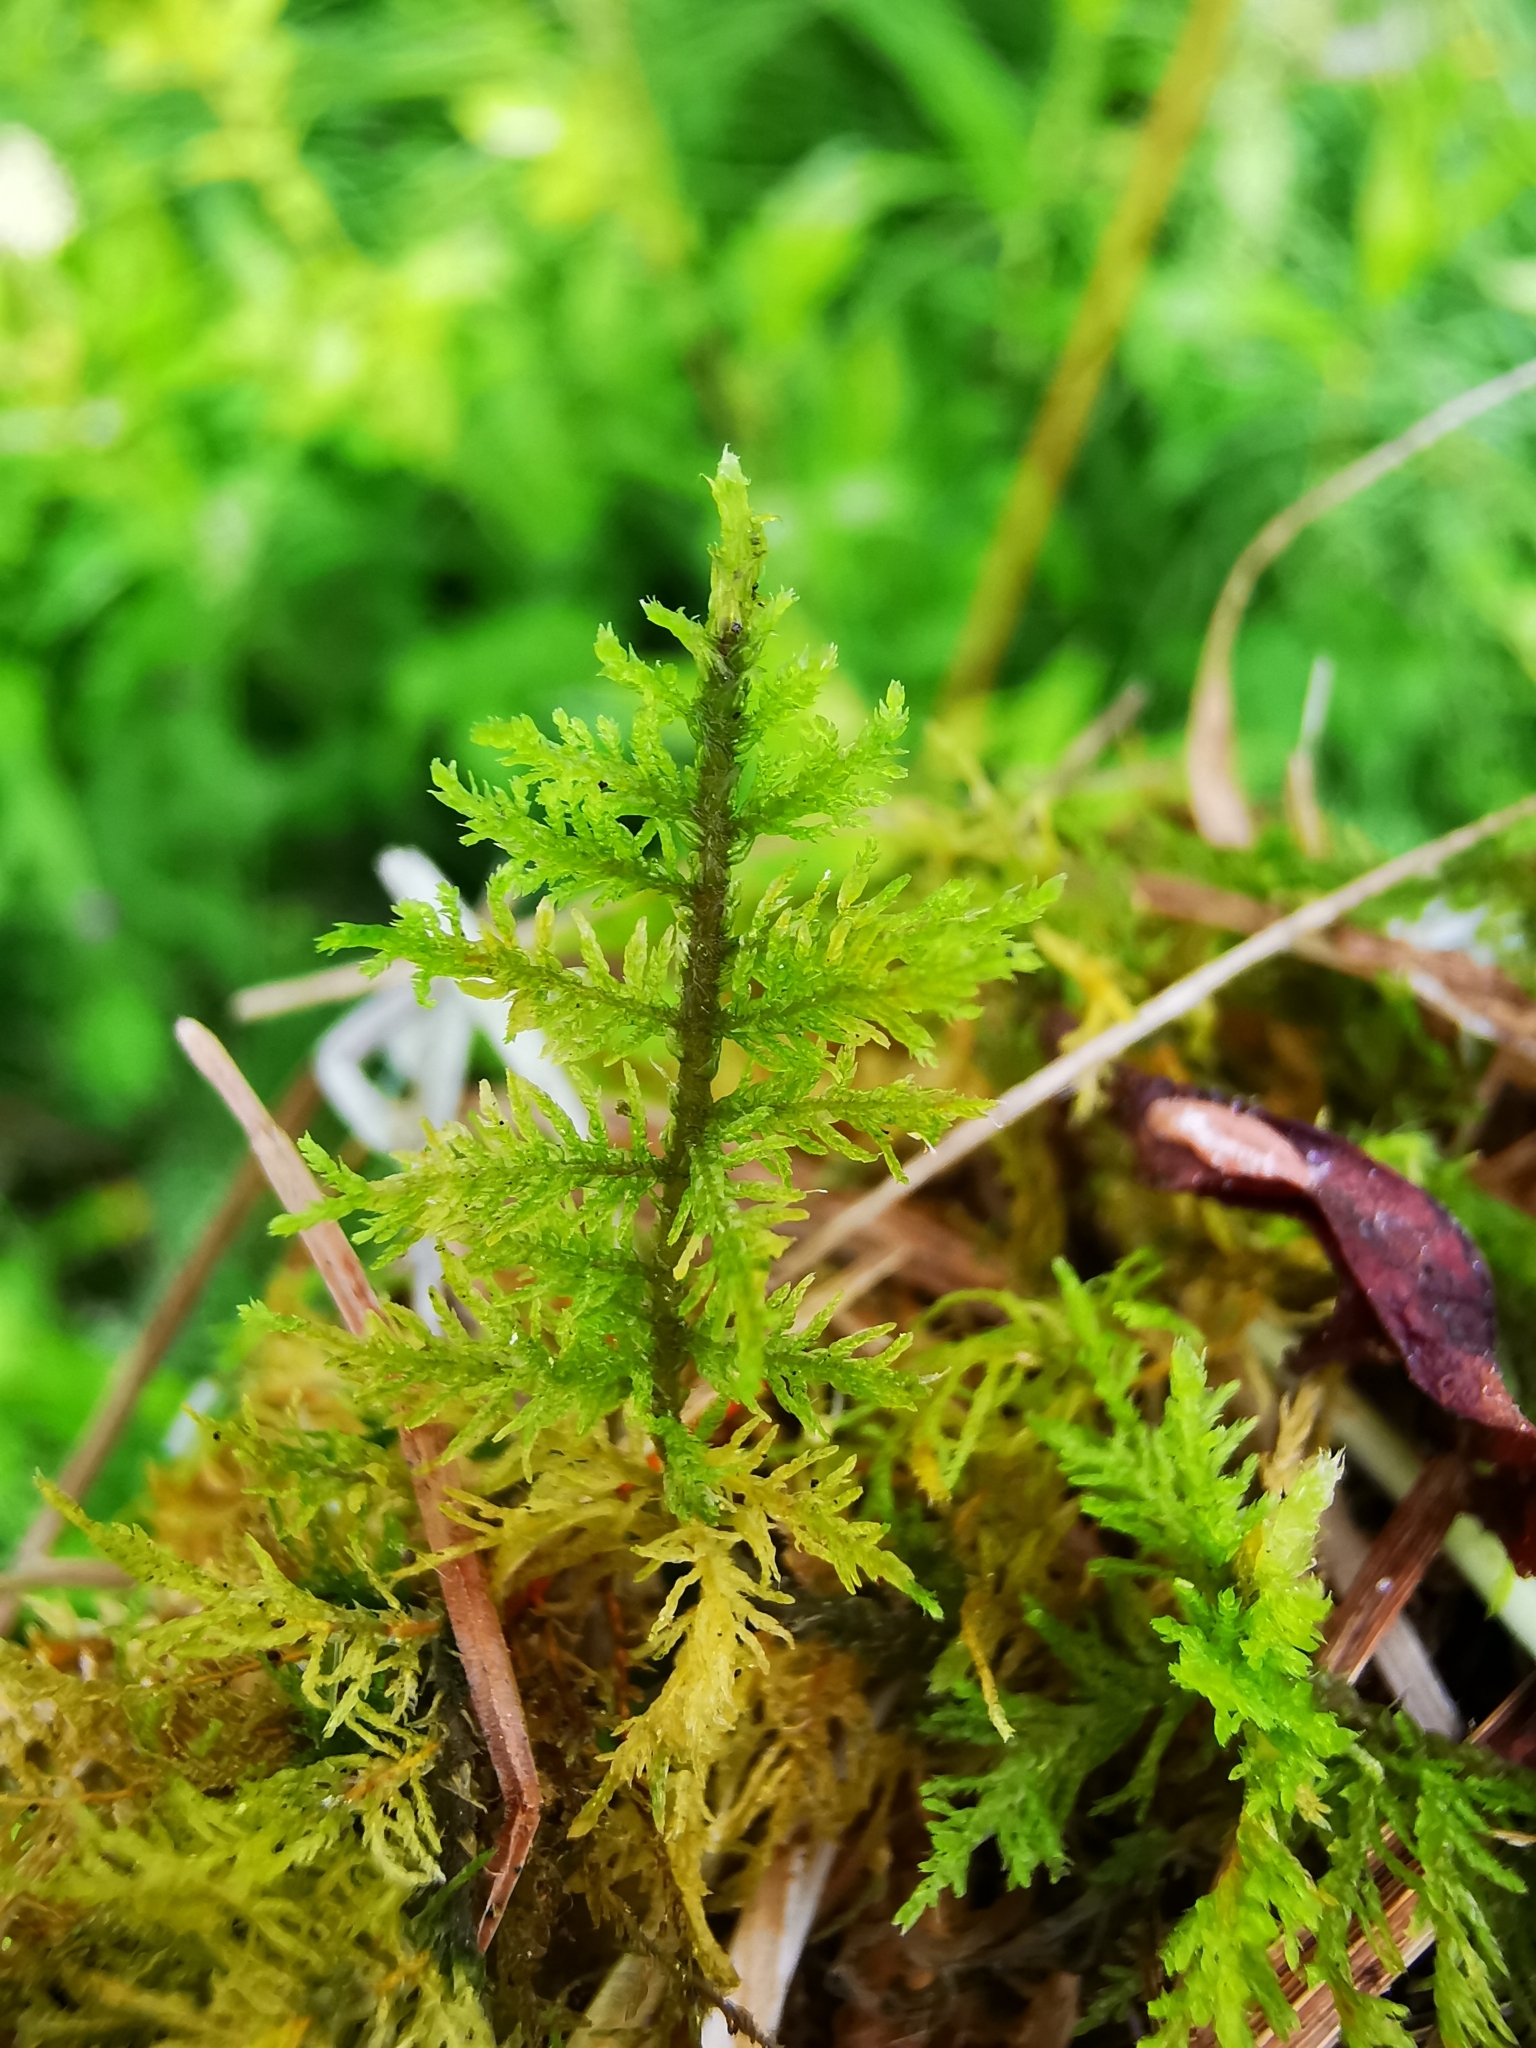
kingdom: Plantae
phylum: Bryophyta
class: Bryopsida
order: Hypnales
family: Thuidiaceae
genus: Thuidium
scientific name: Thuidium tamariscinum
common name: Common tamarisk-moss
